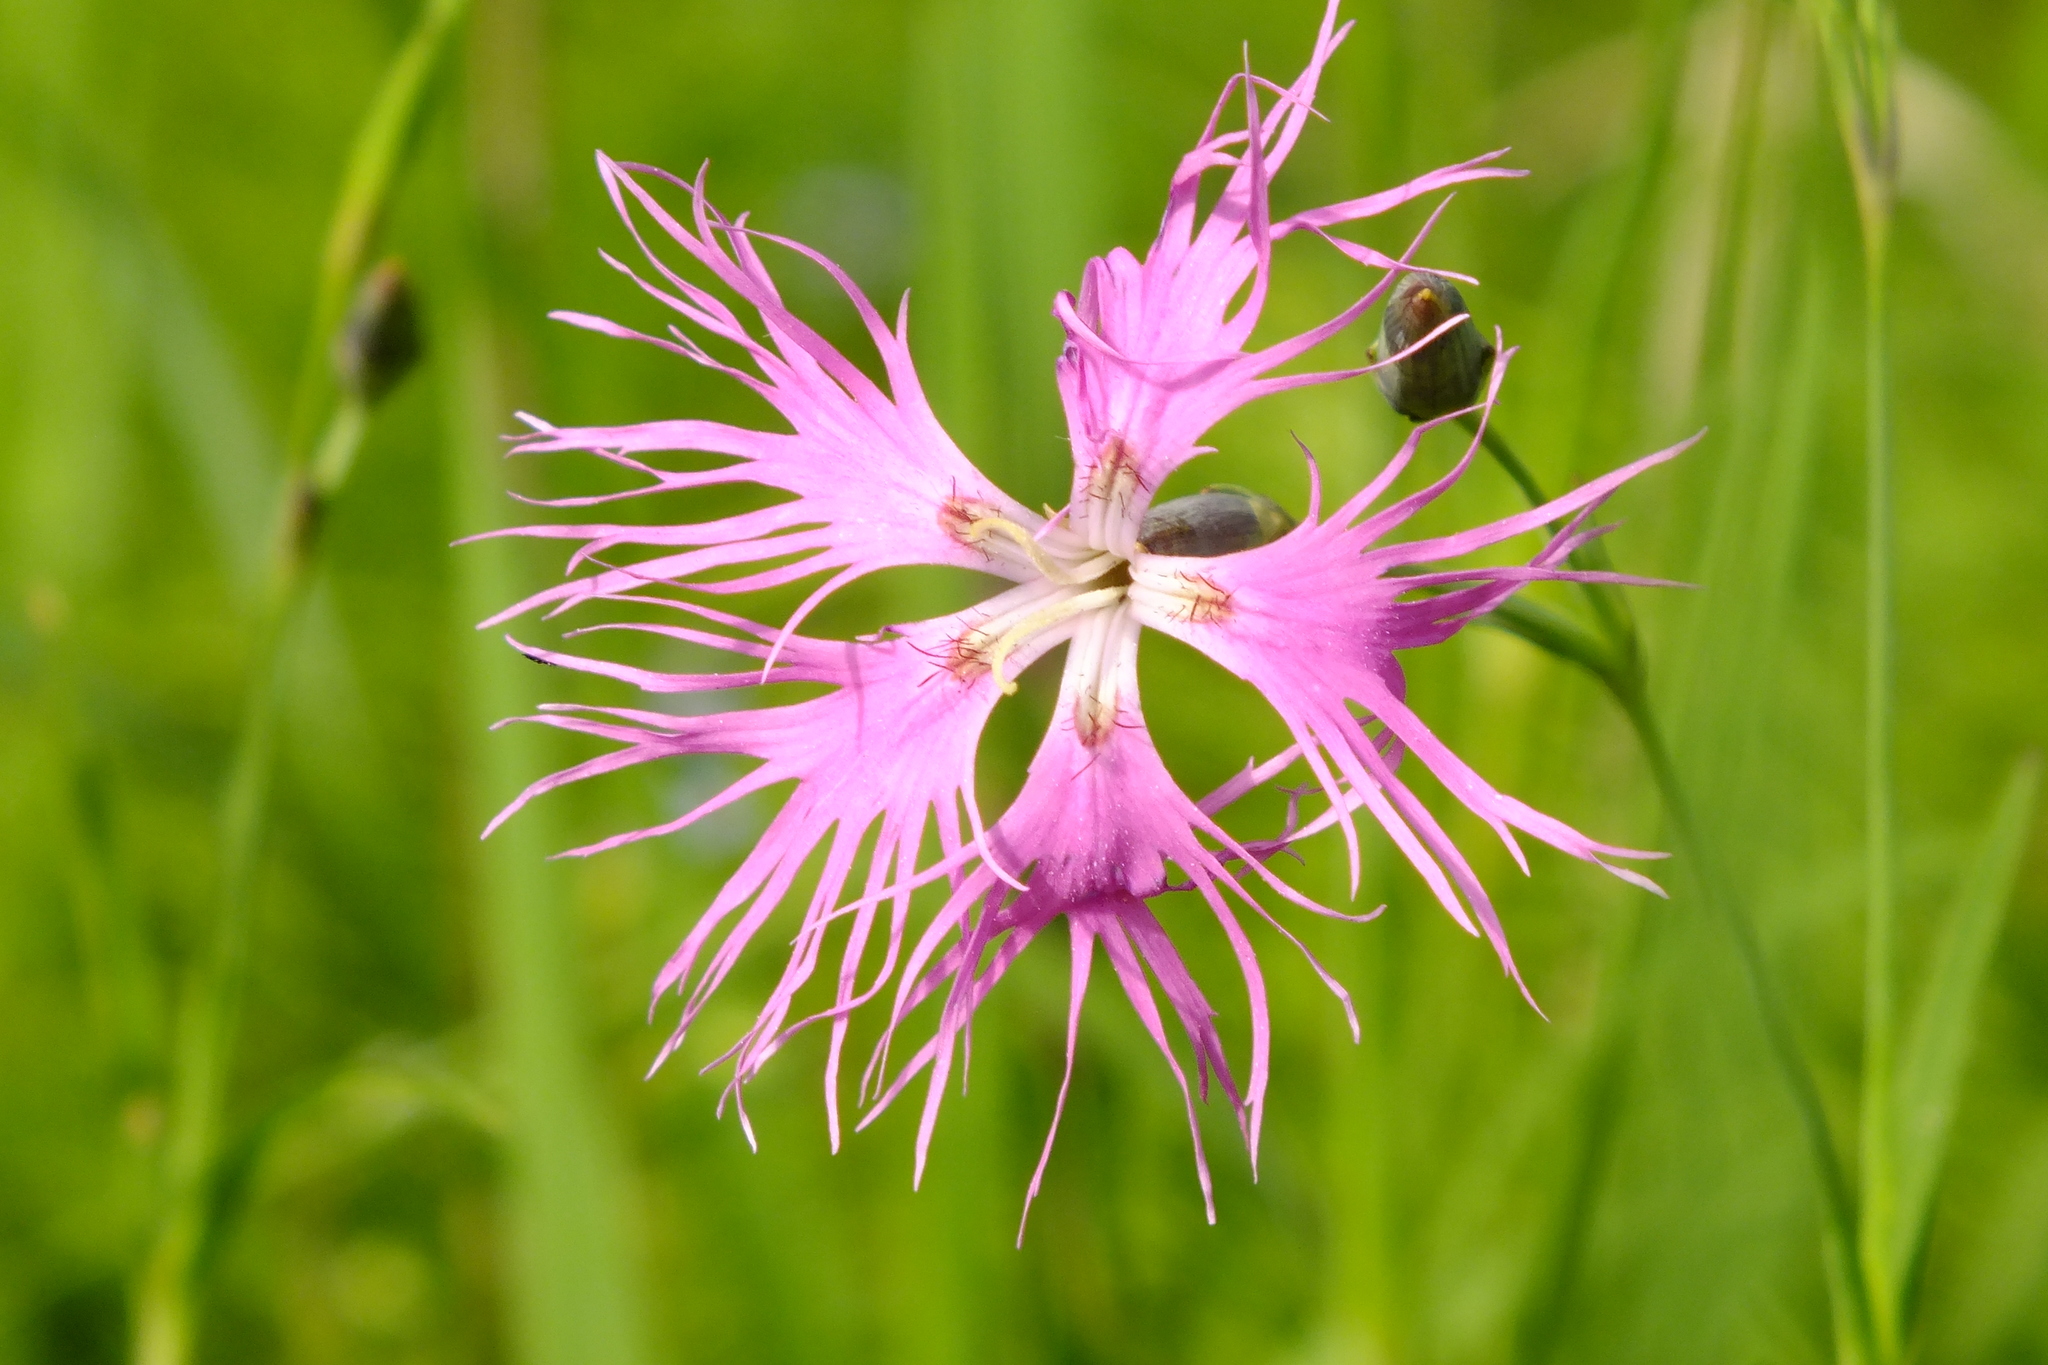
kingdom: Plantae
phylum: Tracheophyta
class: Magnoliopsida
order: Caryophyllales
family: Caryophyllaceae
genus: Dianthus
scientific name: Dianthus superbus
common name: Fringed pink
